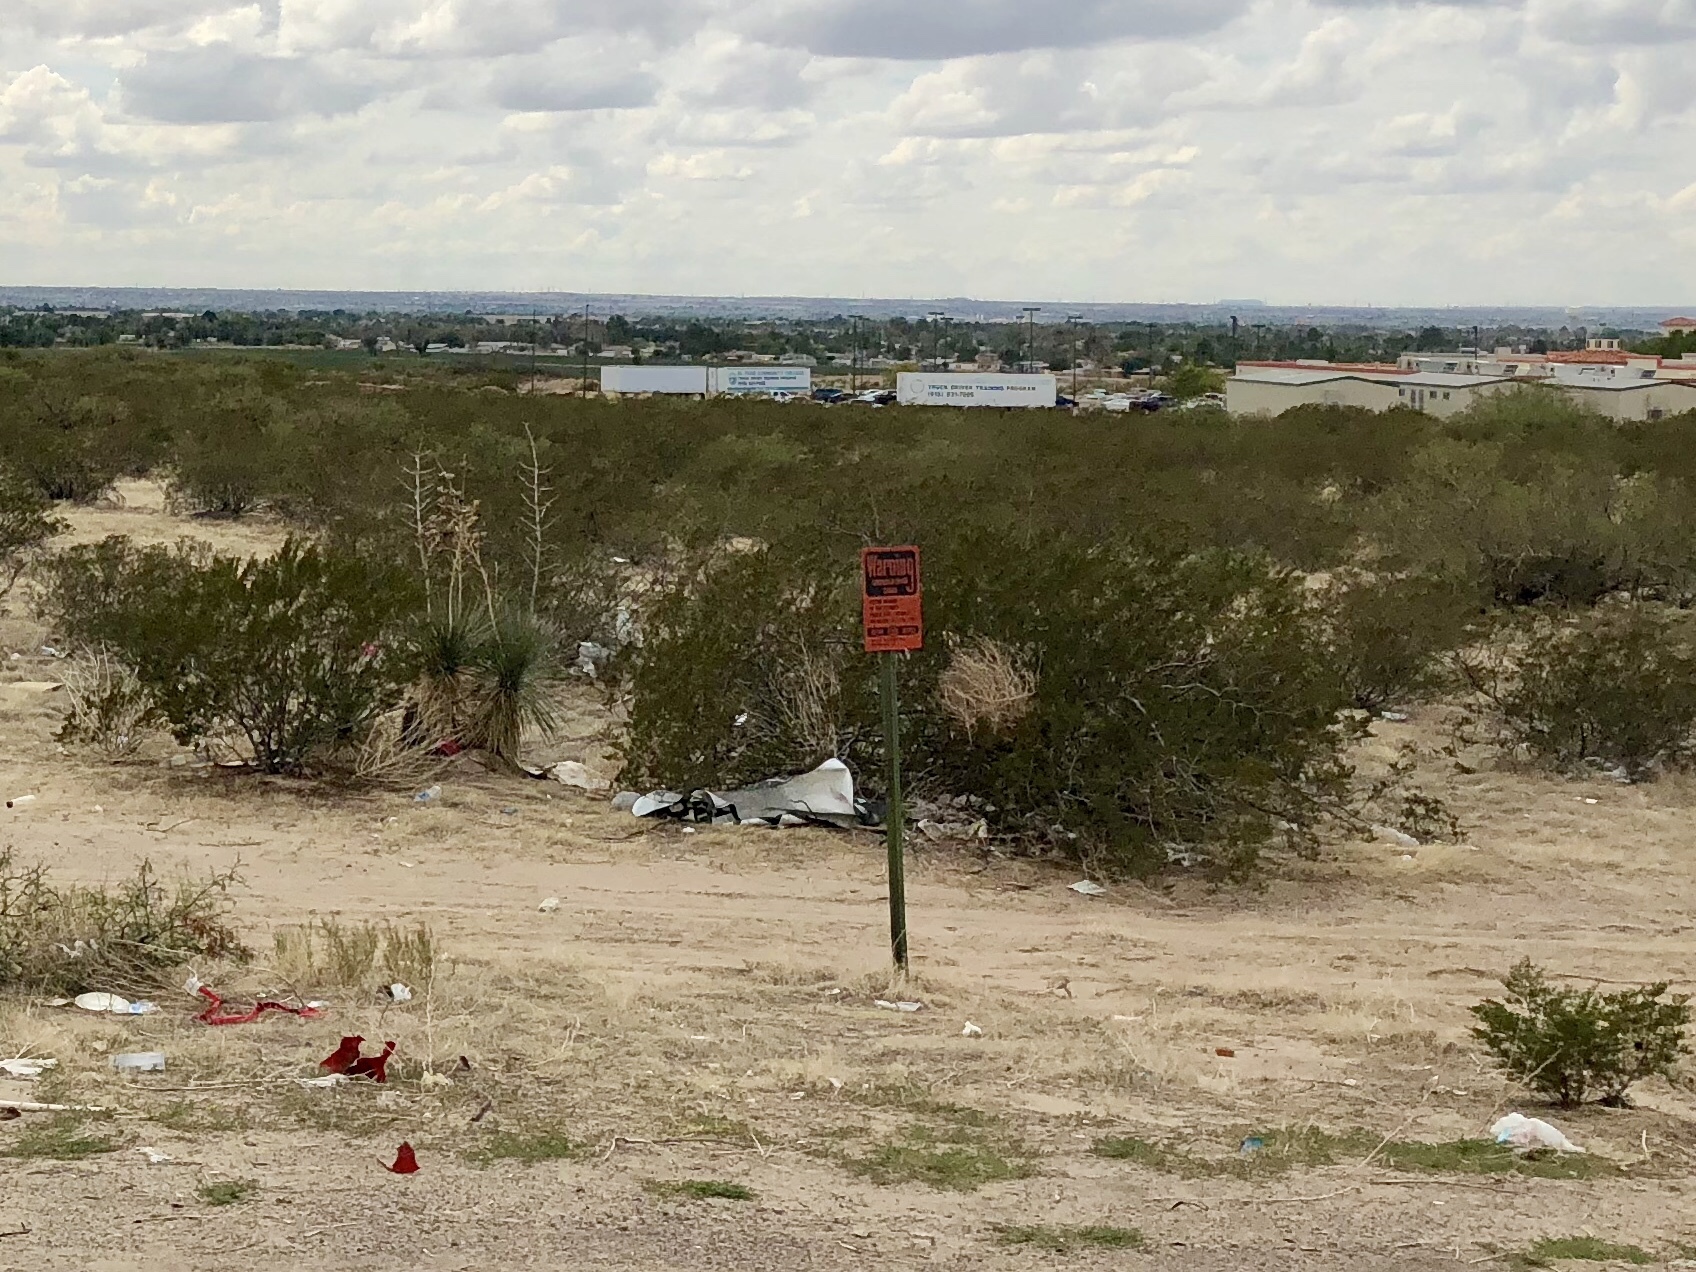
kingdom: Plantae
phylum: Tracheophyta
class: Magnoliopsida
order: Zygophyllales
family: Zygophyllaceae
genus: Larrea
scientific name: Larrea tridentata
